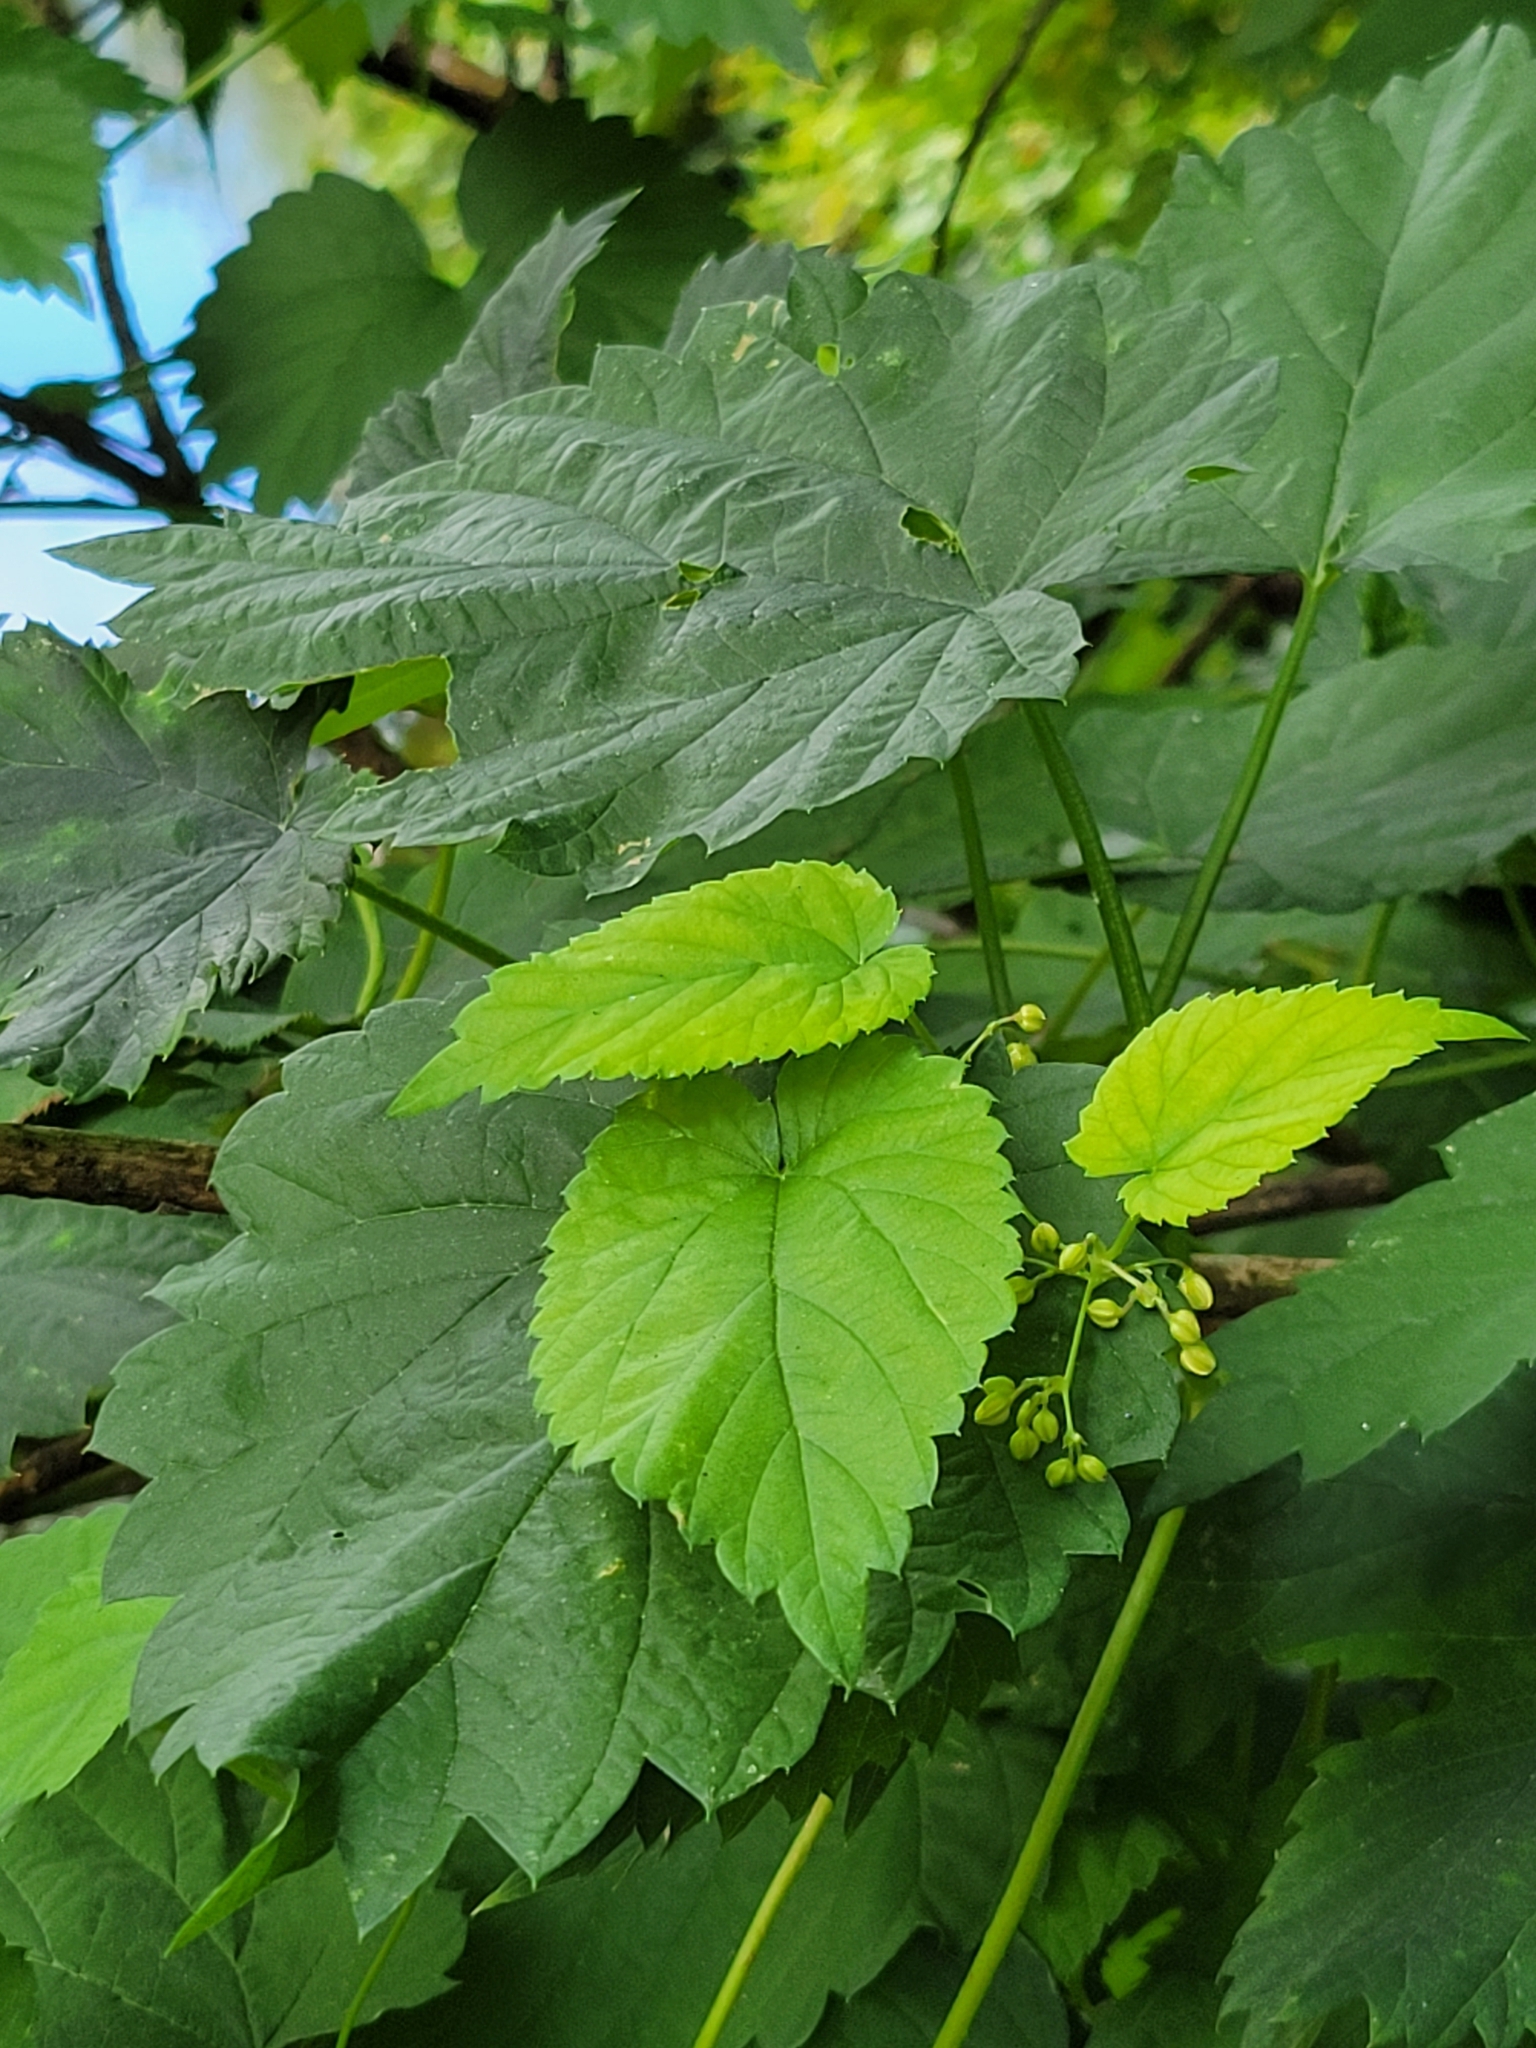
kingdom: Plantae
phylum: Tracheophyta
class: Magnoliopsida
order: Rosales
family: Cannabaceae
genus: Humulus
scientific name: Humulus lupulus
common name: Hop
